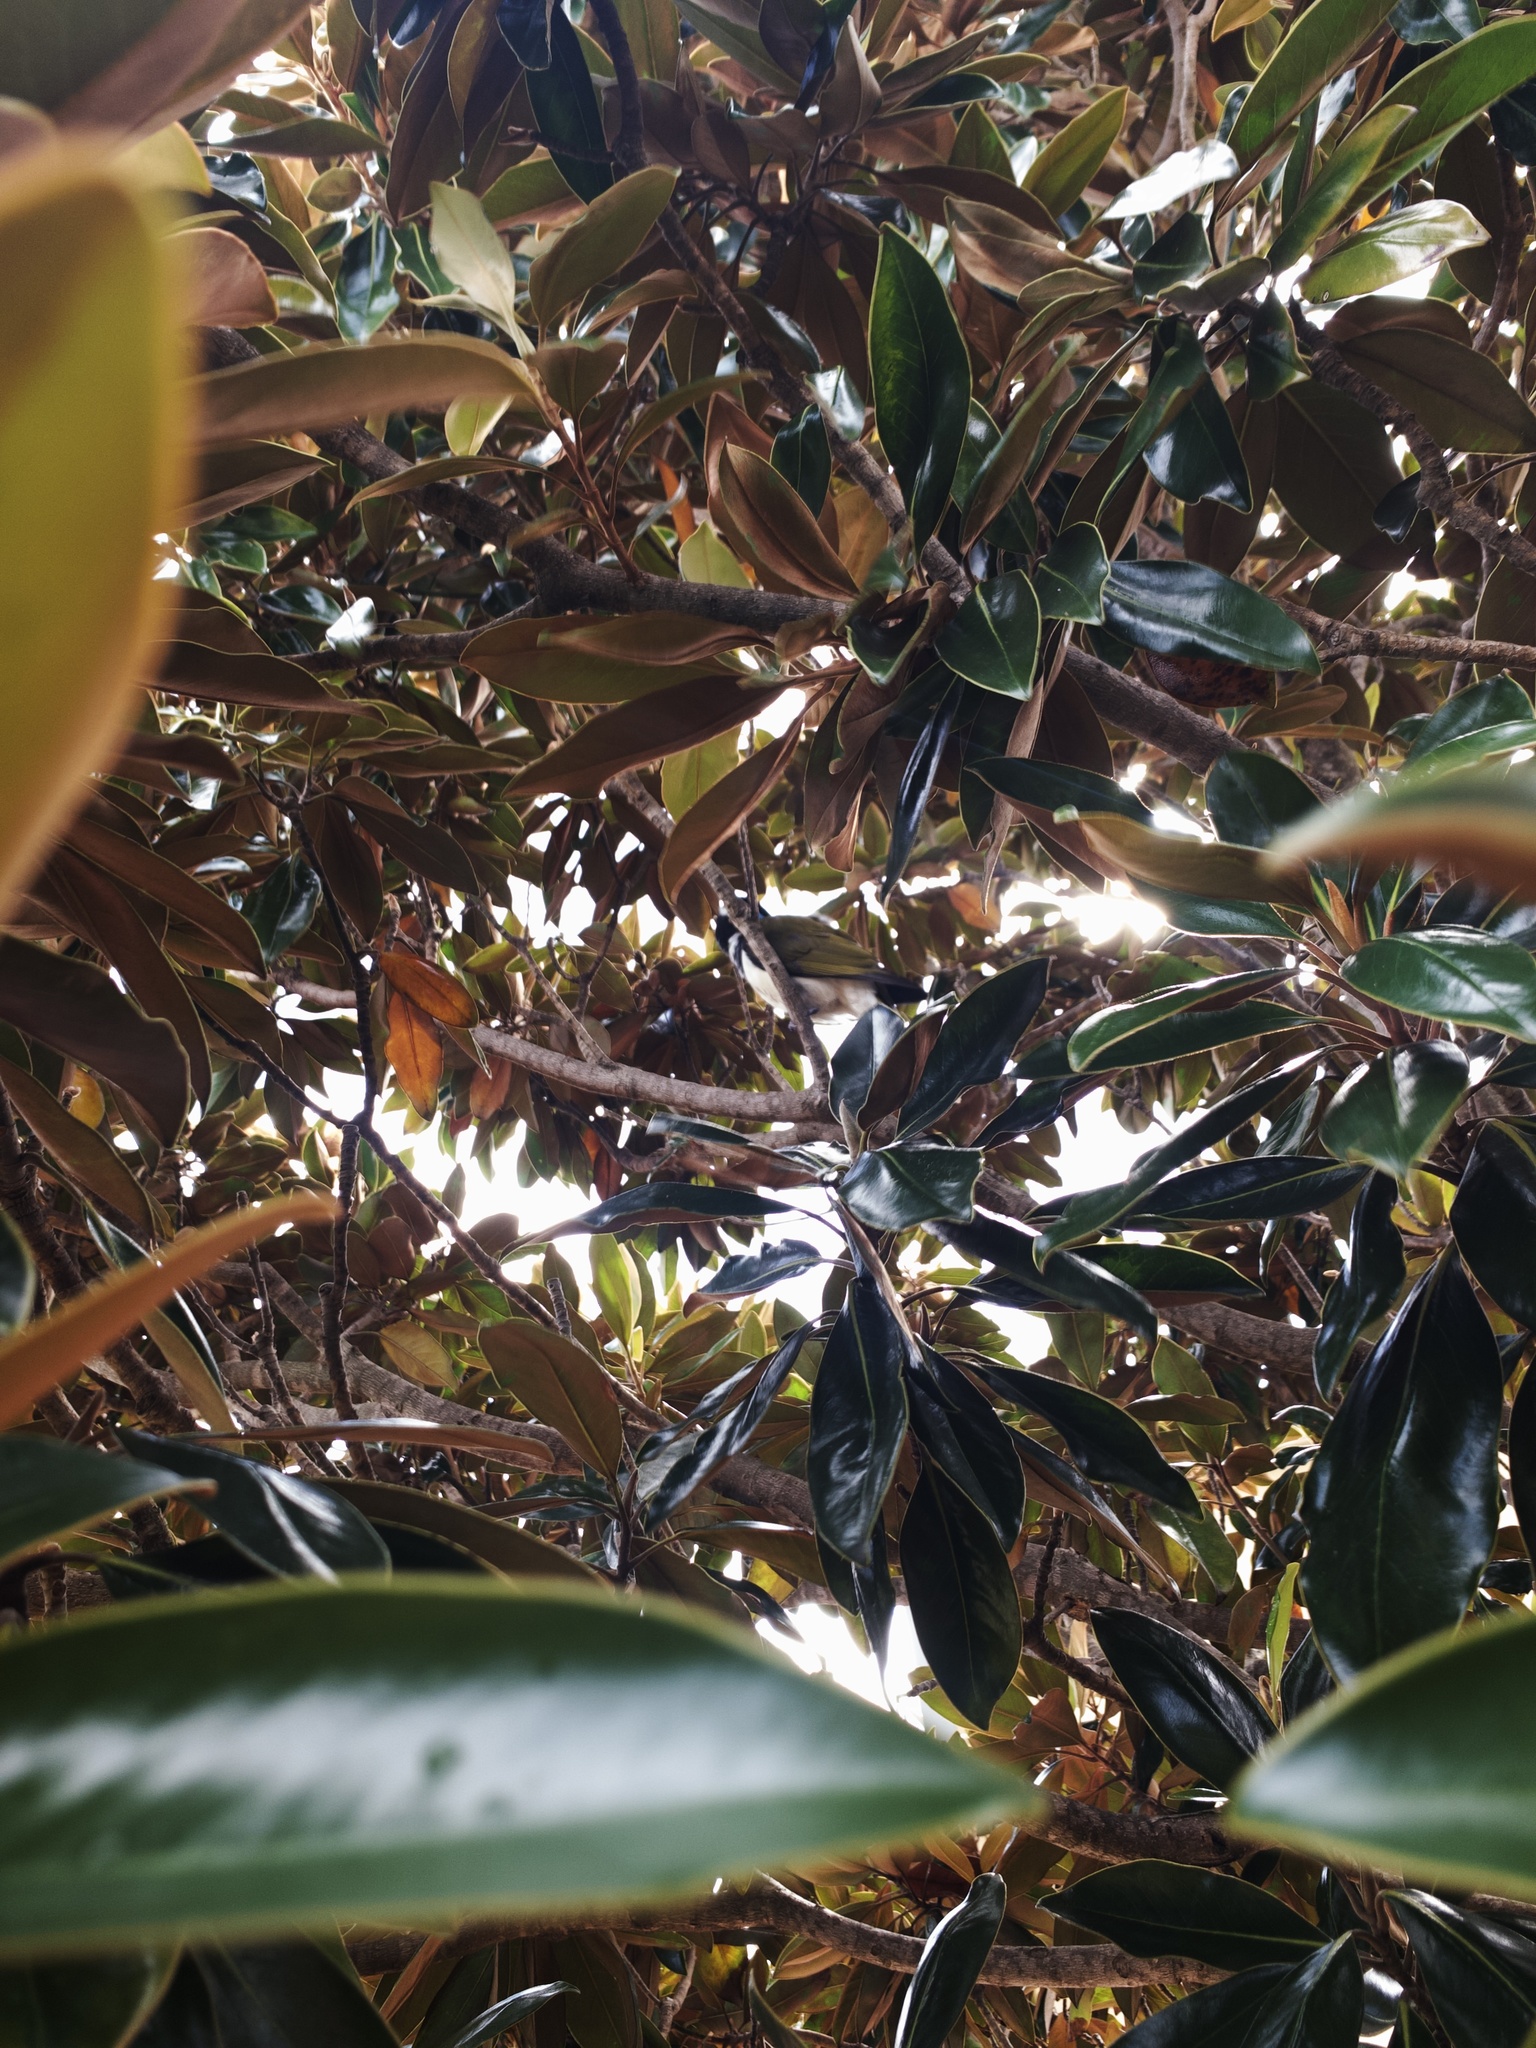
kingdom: Animalia
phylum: Chordata
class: Aves
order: Passeriformes
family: Meliphagidae
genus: Entomyzon
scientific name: Entomyzon cyanotis
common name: Blue-faced honeyeater
